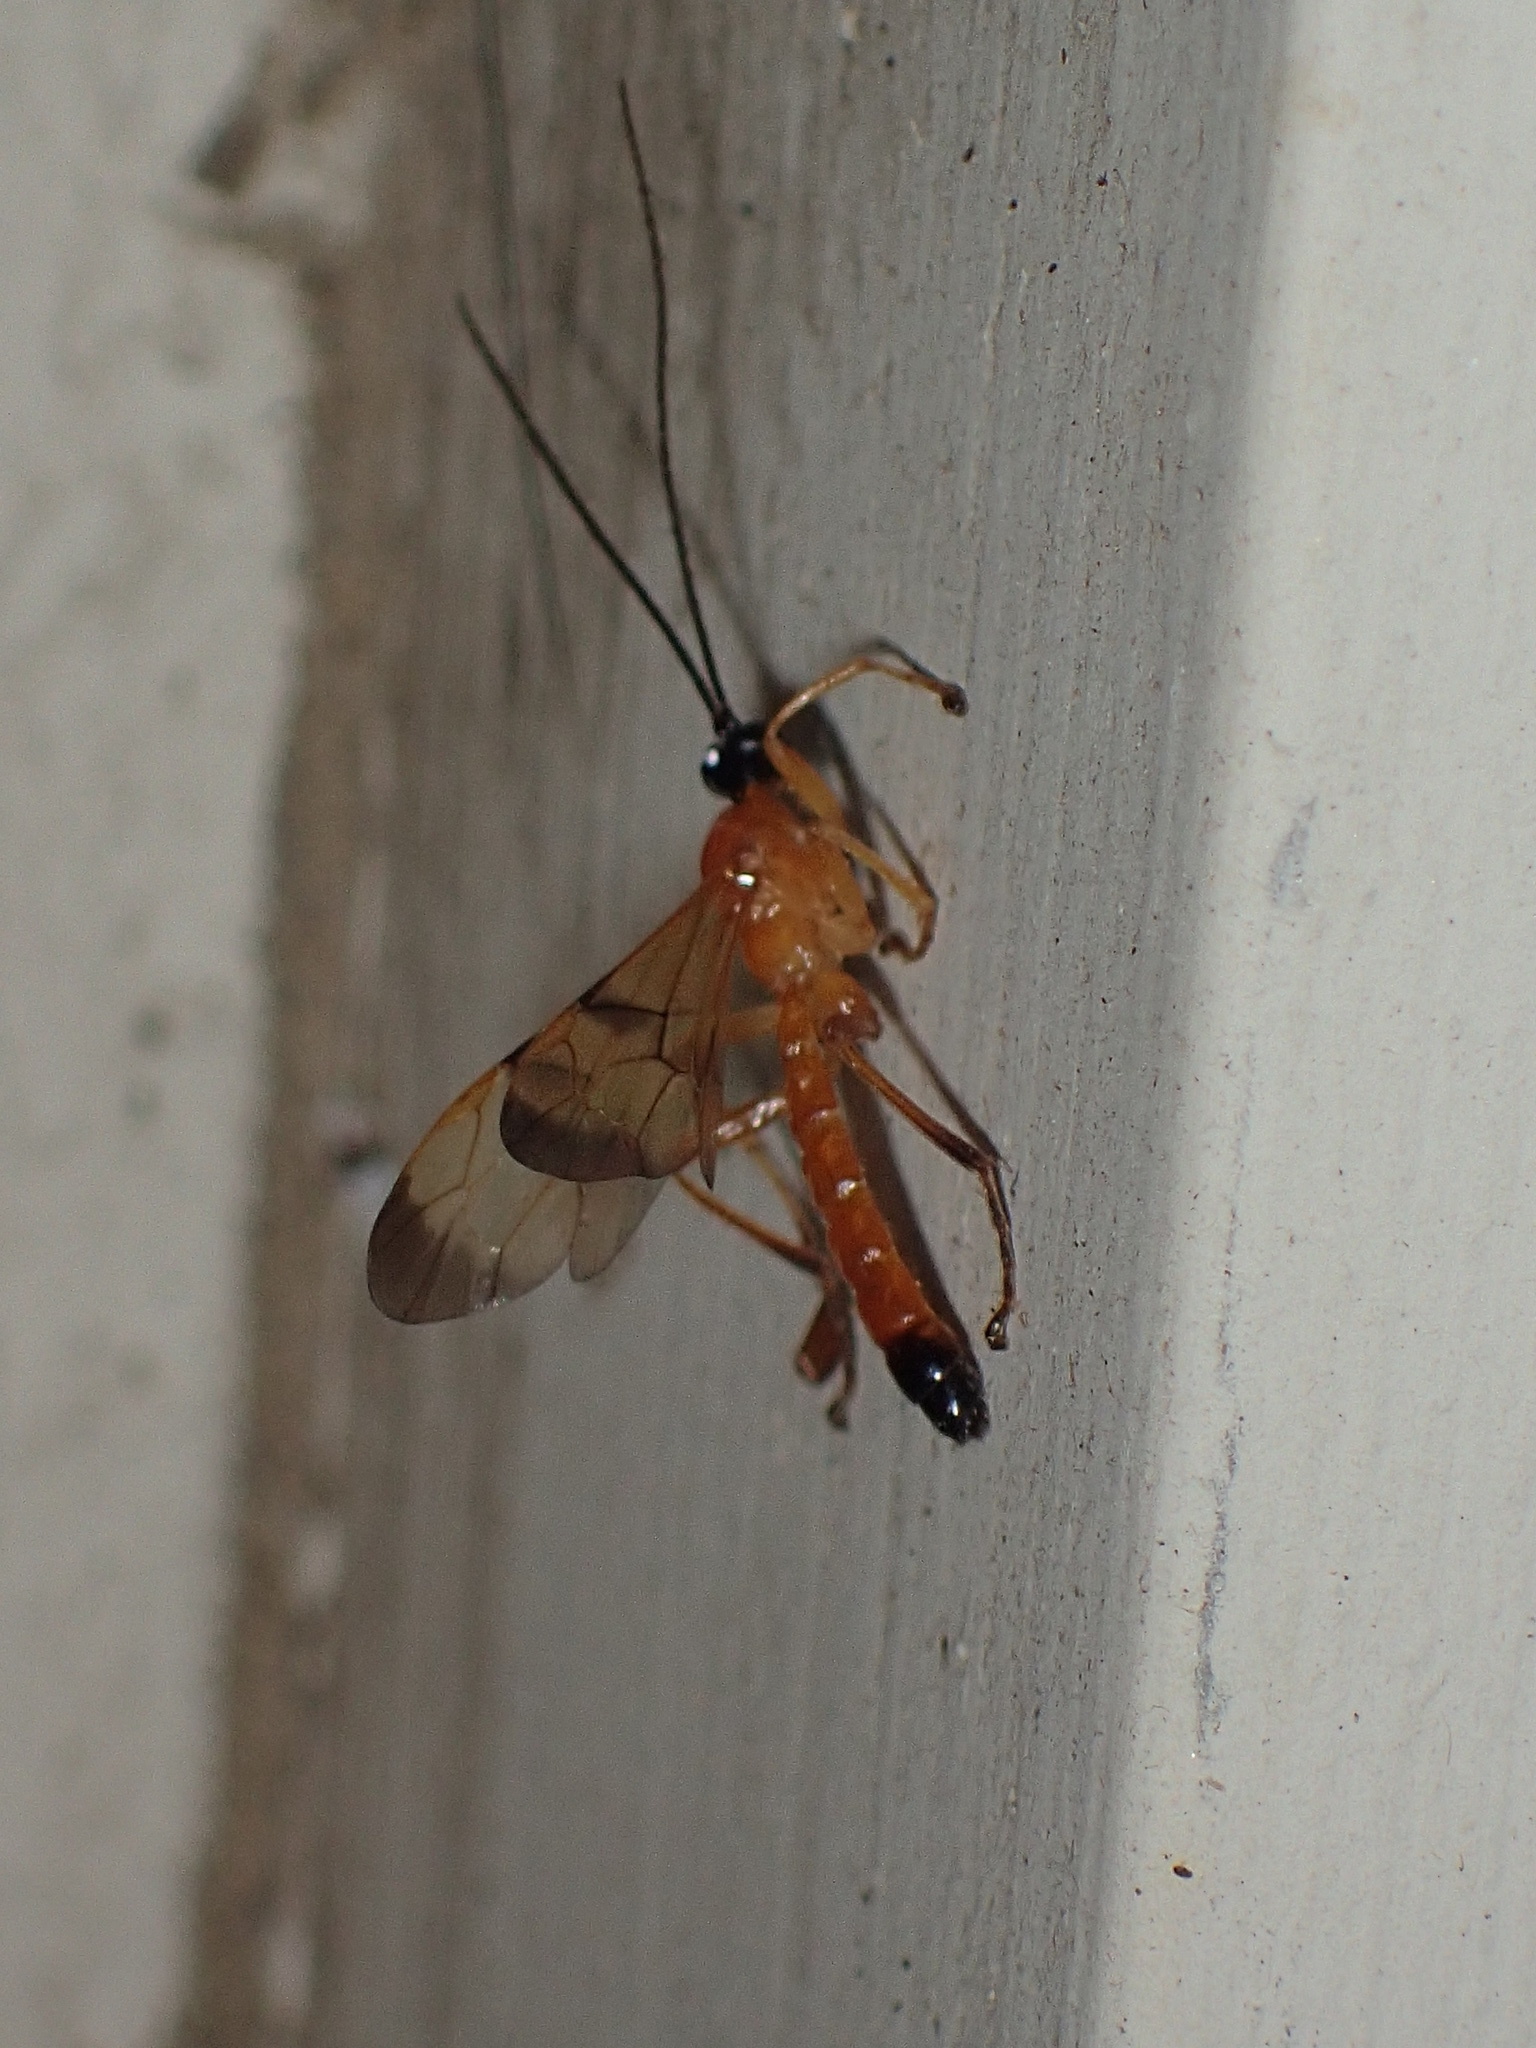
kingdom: Animalia
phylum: Arthropoda
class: Insecta
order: Hymenoptera
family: Ichneumonidae
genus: Acrotaphus
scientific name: Acrotaphus wiltii
